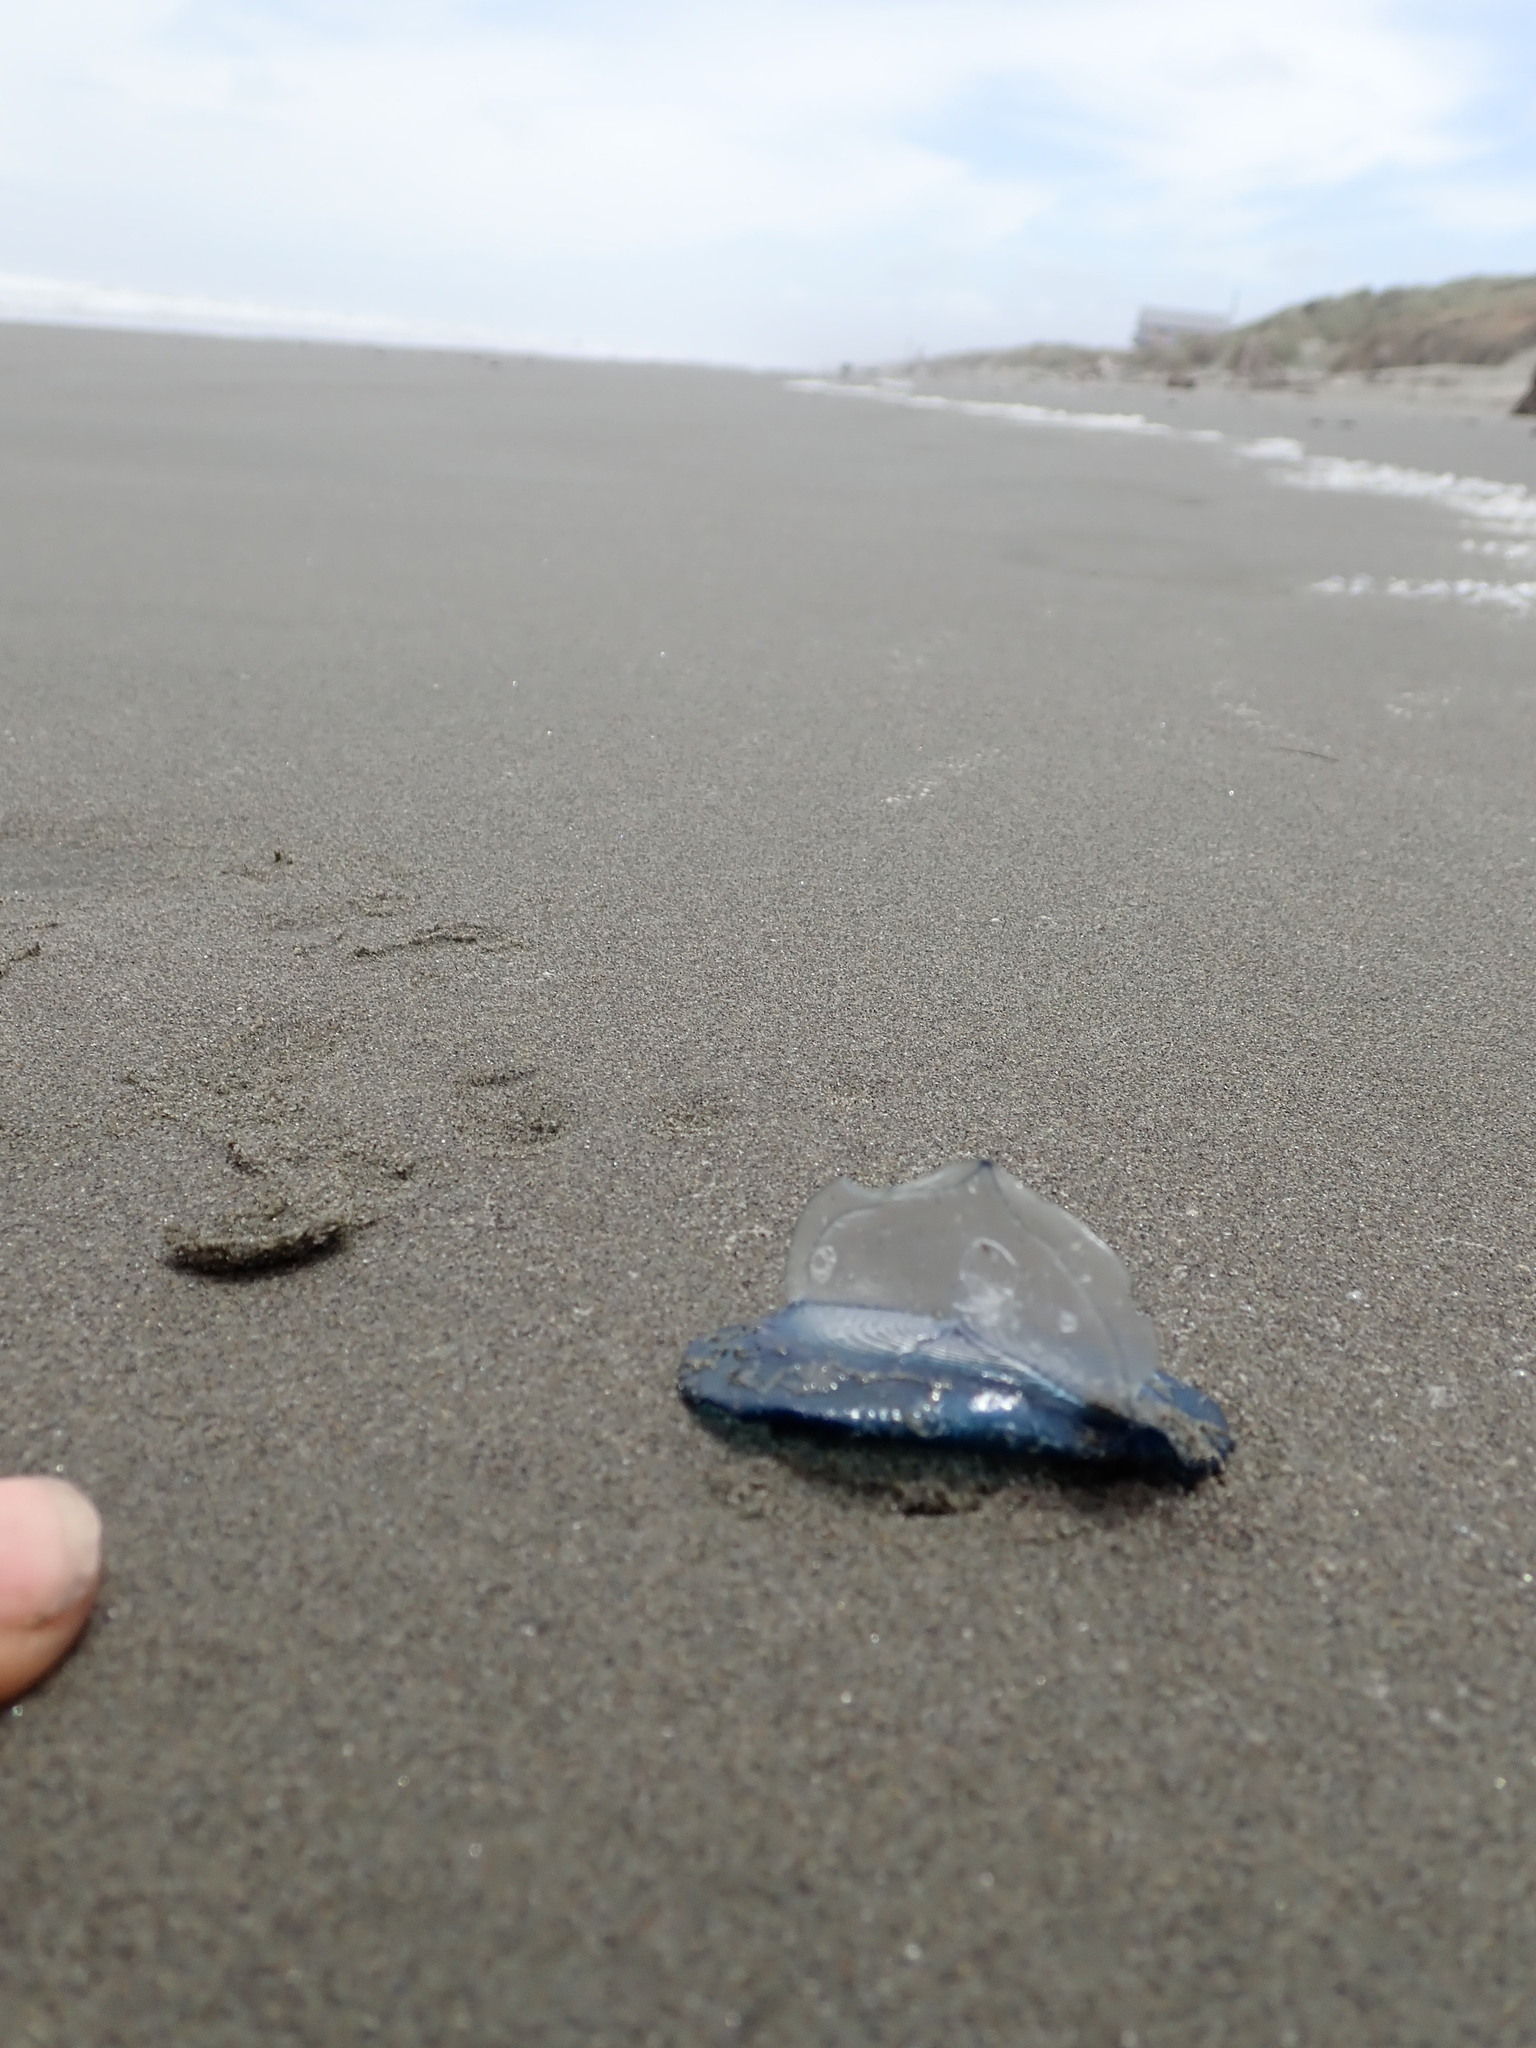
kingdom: Animalia
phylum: Cnidaria
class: Hydrozoa
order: Anthoathecata
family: Porpitidae
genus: Velella
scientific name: Velella velella
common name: By-the-wind-sailor
